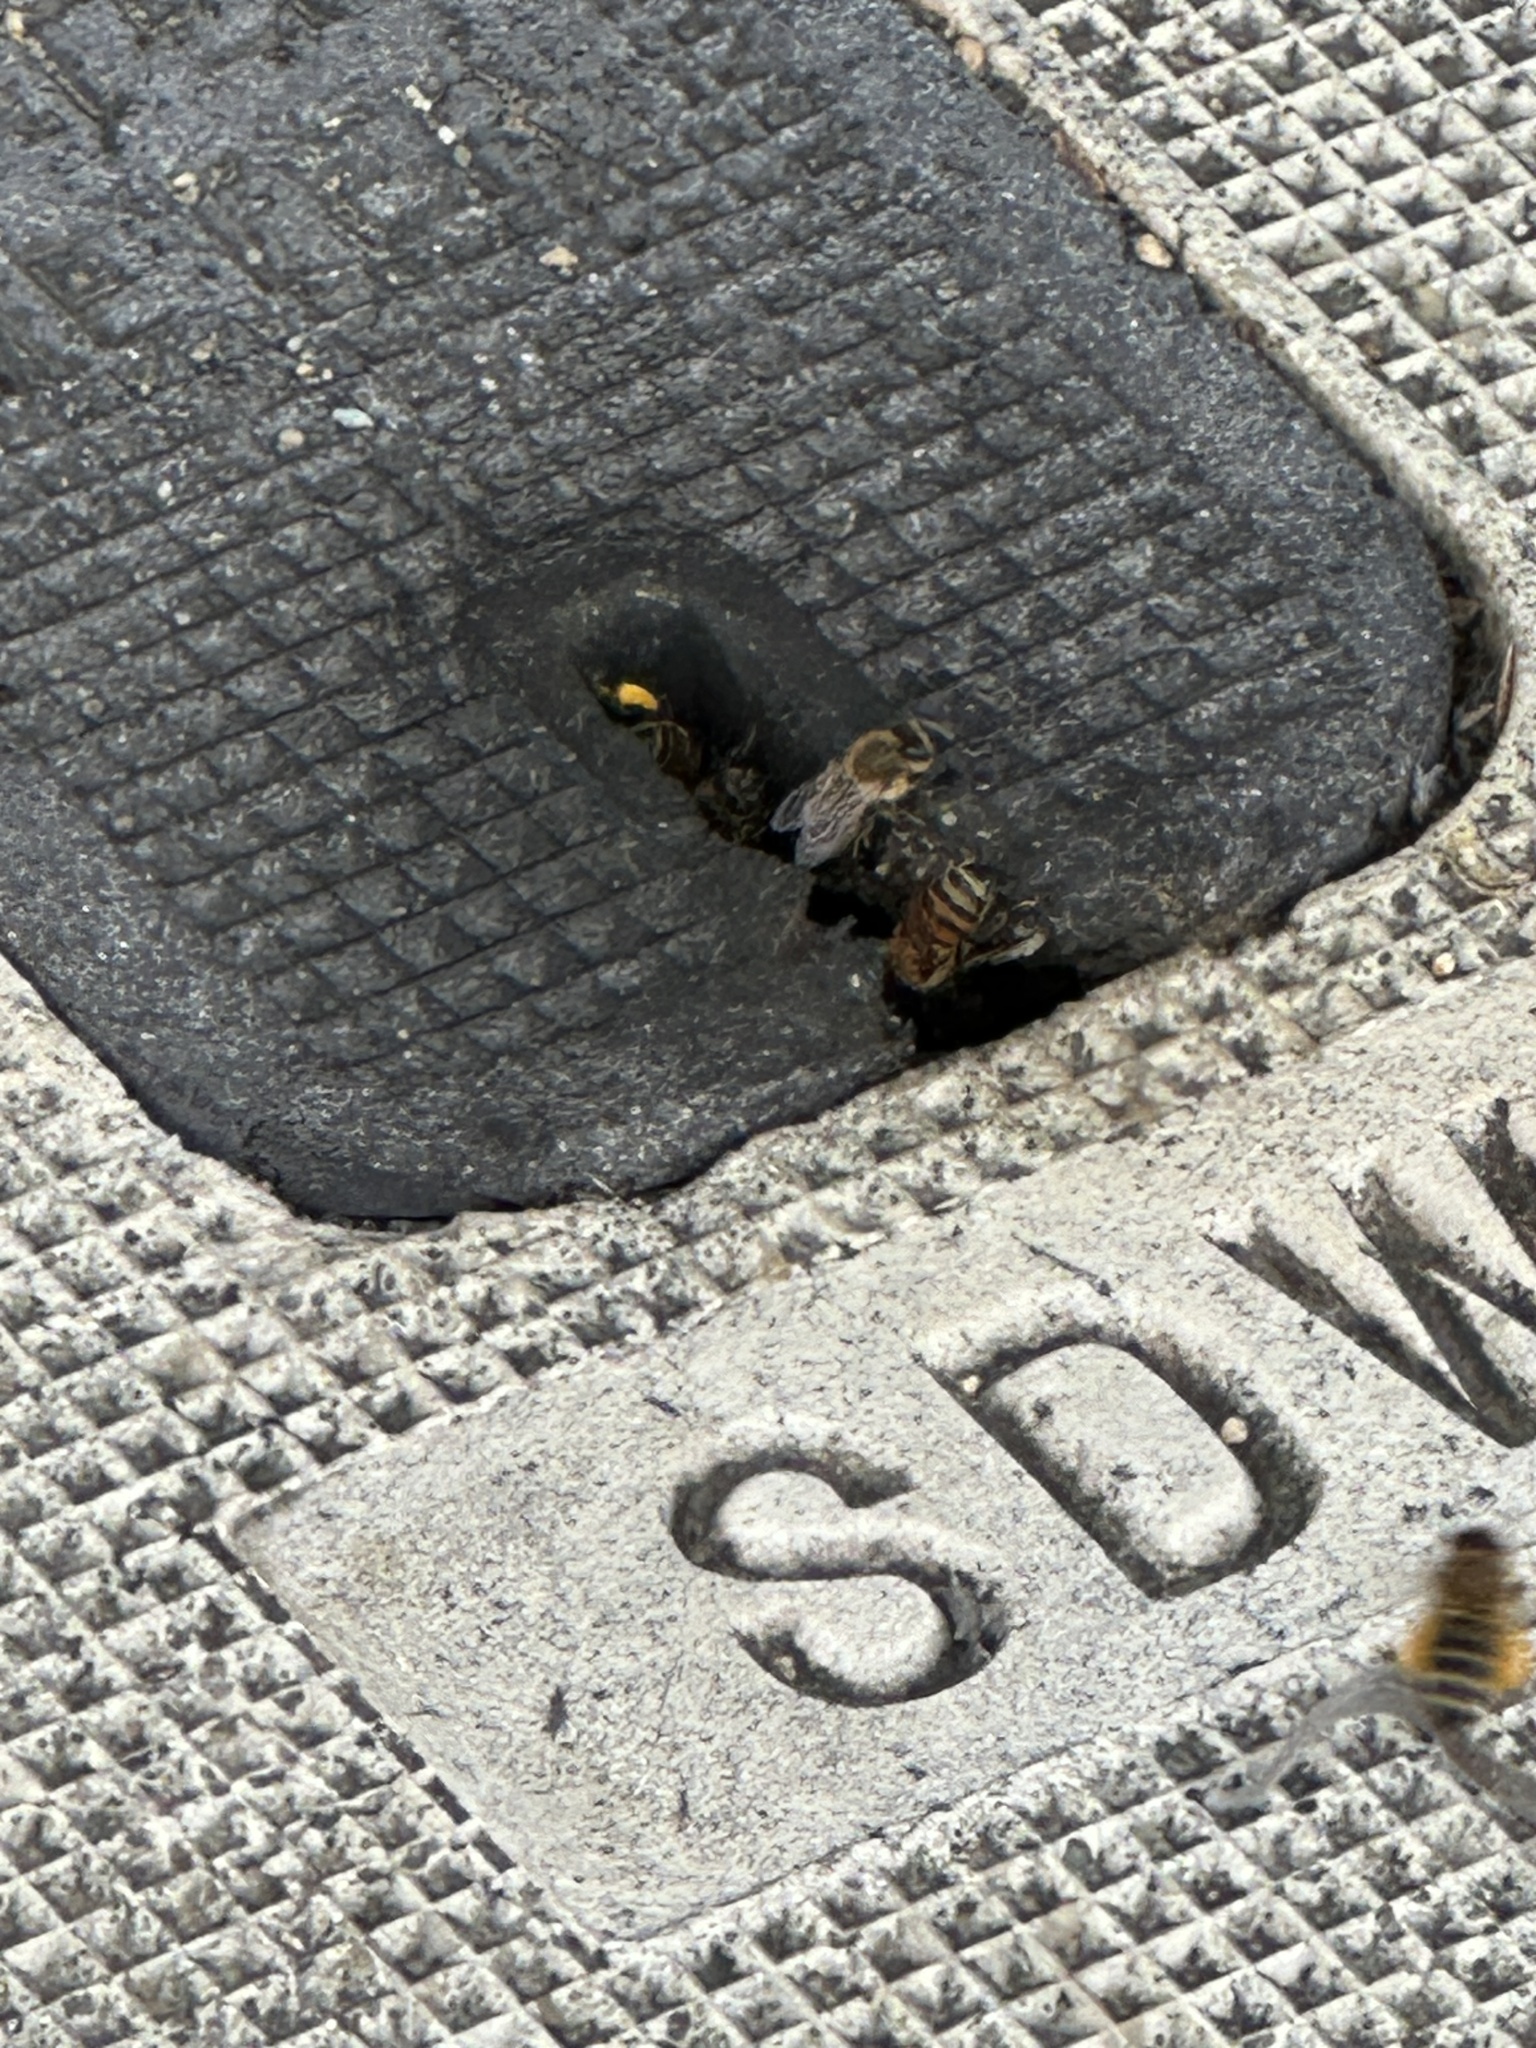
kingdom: Animalia
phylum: Arthropoda
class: Insecta
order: Hymenoptera
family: Apidae
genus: Apis
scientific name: Apis mellifera
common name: Honey bee
